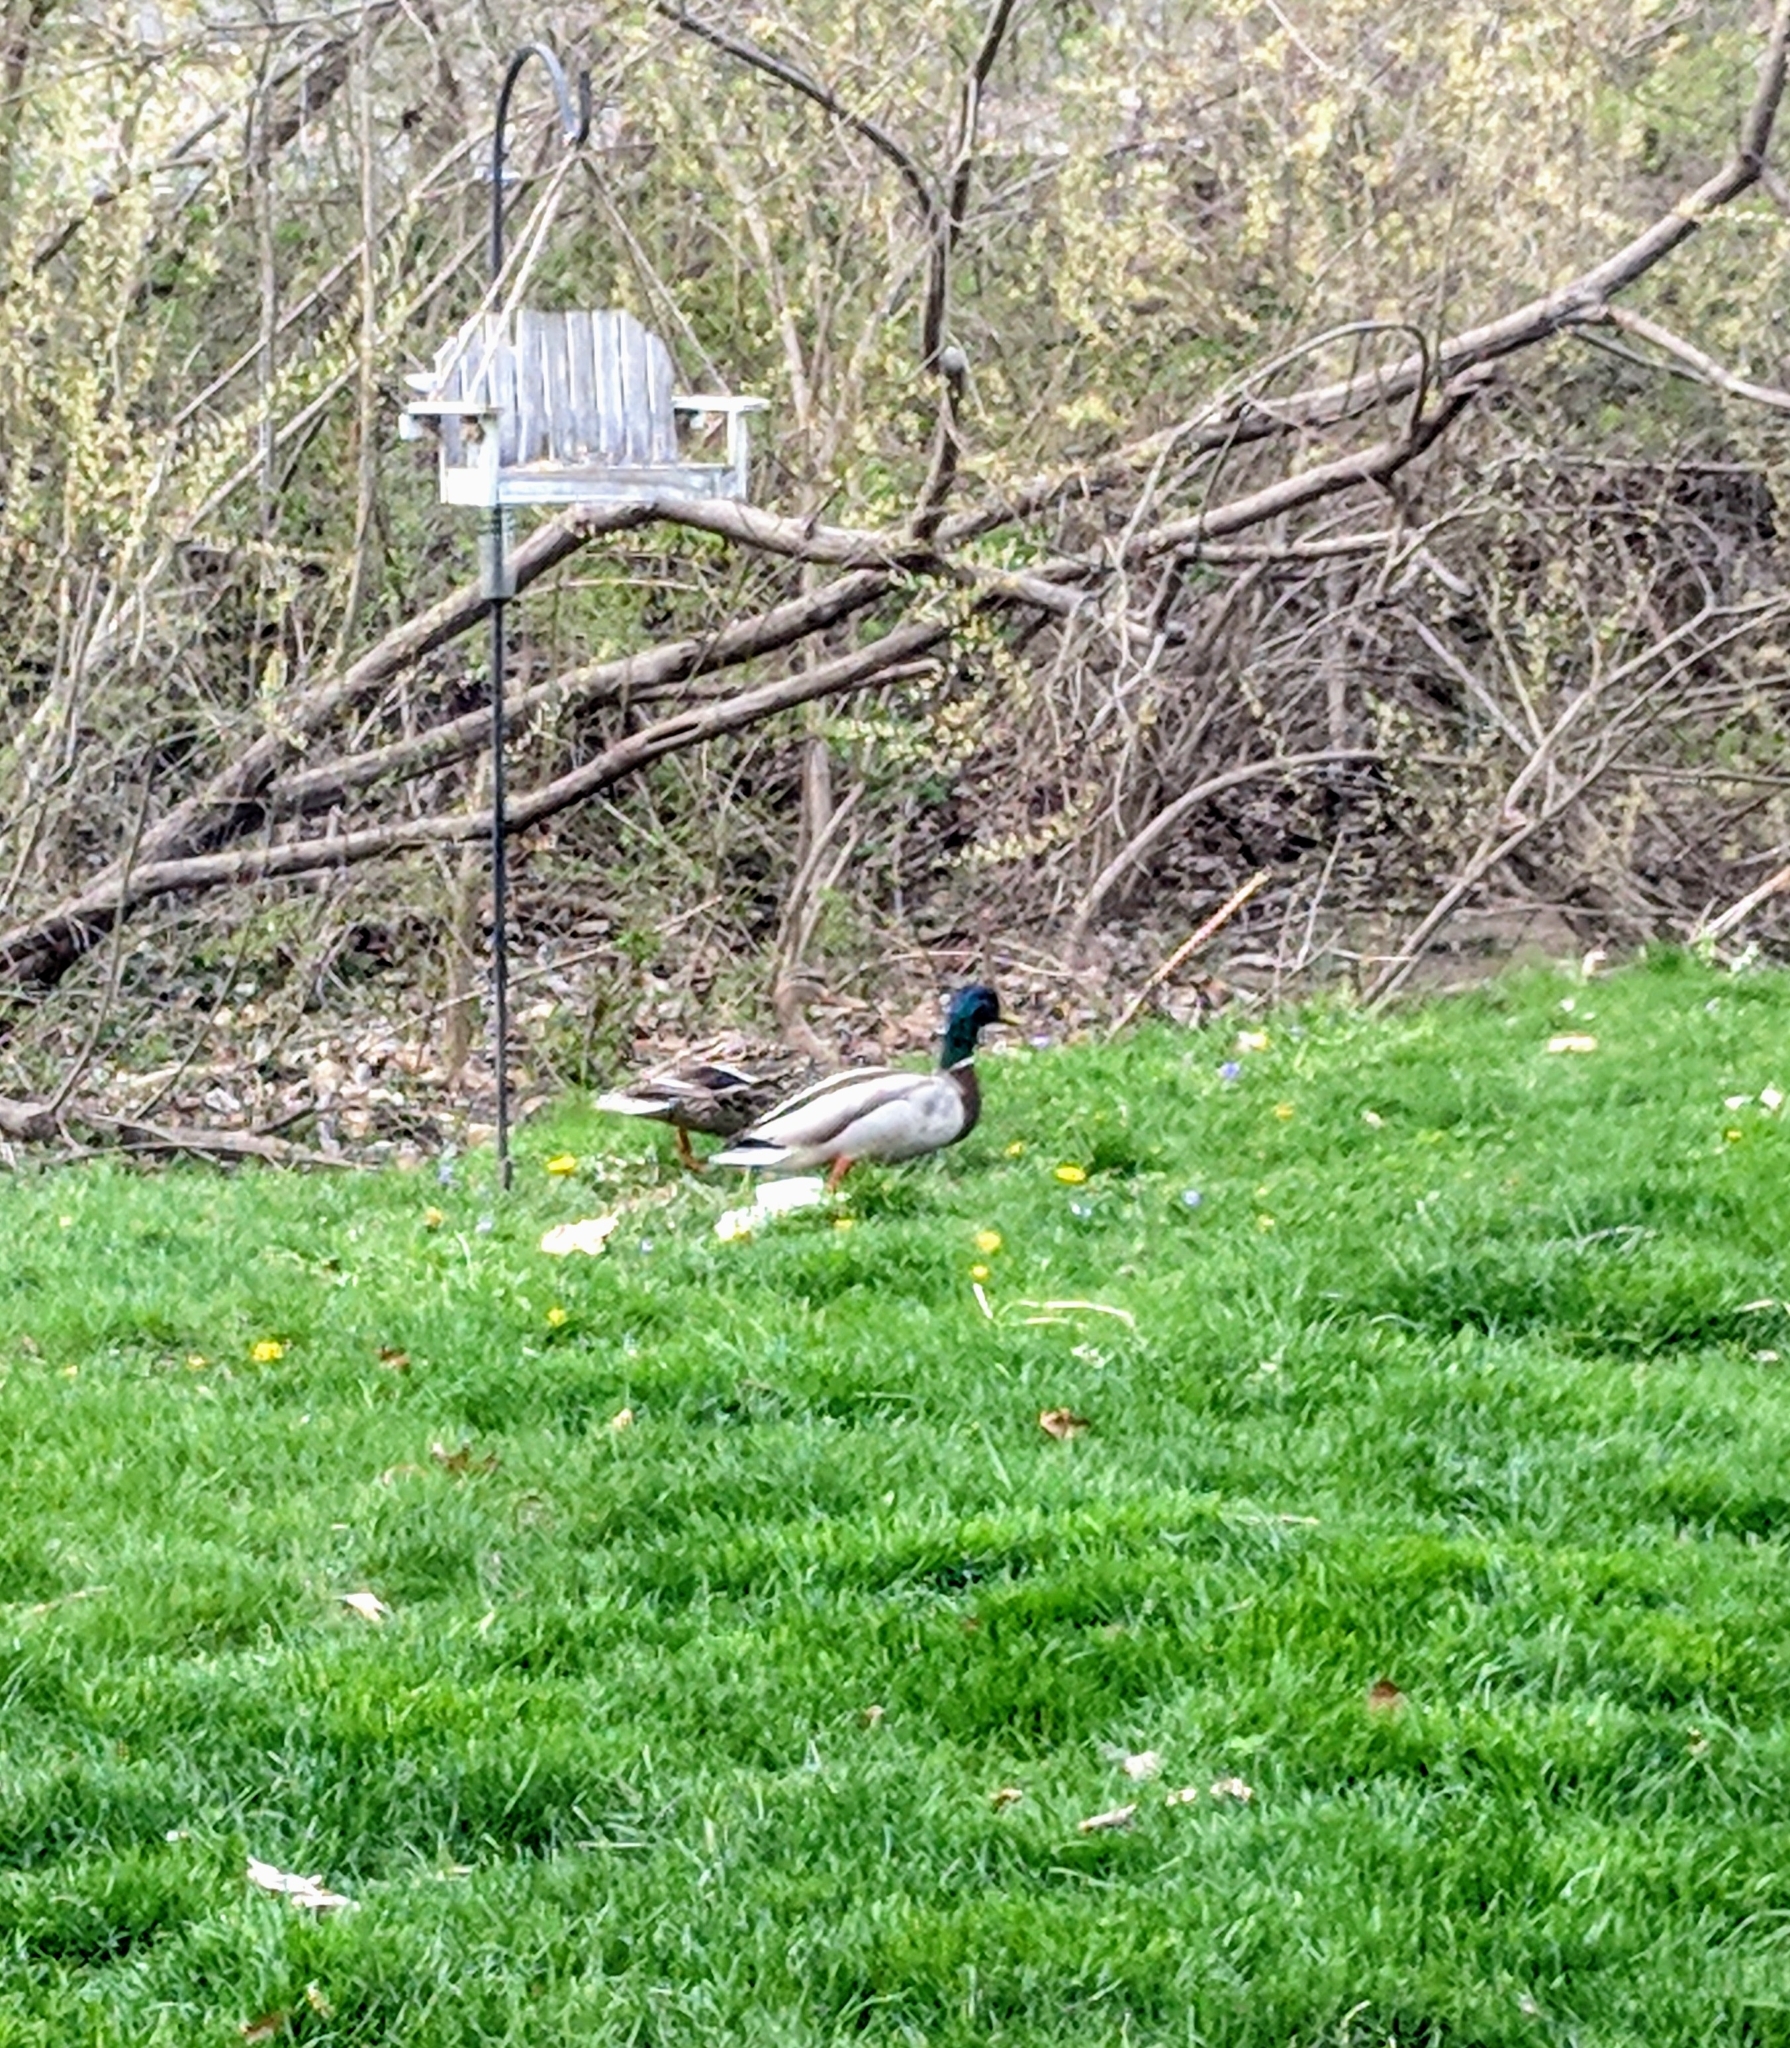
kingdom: Animalia
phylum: Chordata
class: Aves
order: Anseriformes
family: Anatidae
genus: Anas
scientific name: Anas platyrhynchos
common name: Mallard
